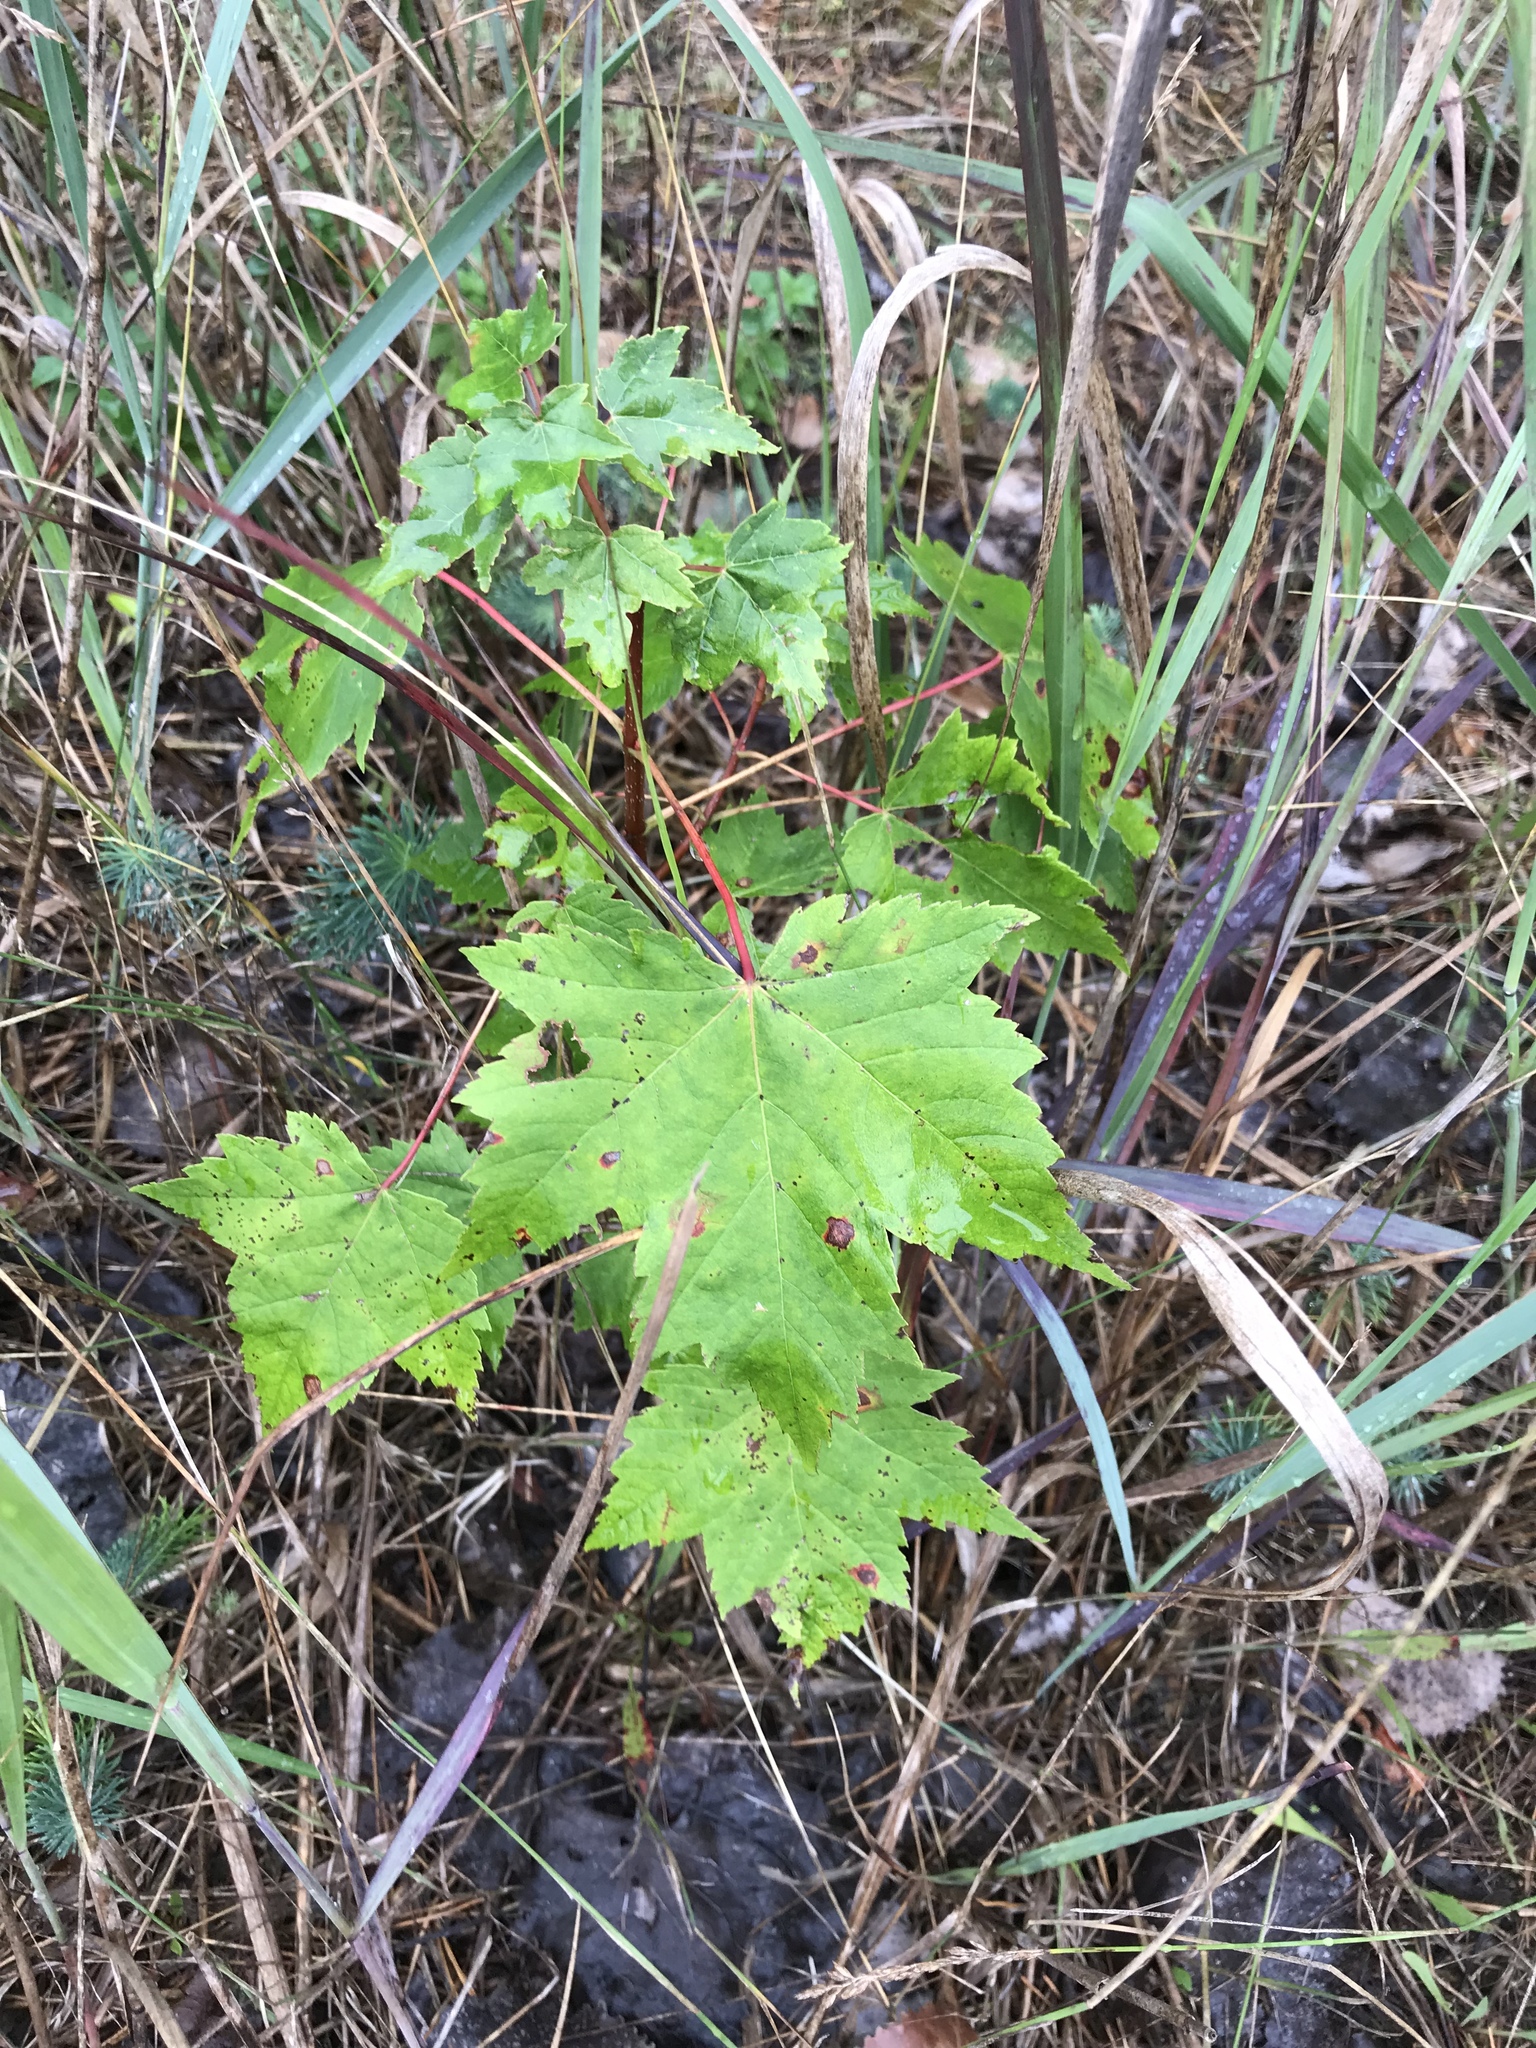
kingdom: Plantae
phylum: Tracheophyta
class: Magnoliopsida
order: Sapindales
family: Sapindaceae
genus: Acer
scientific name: Acer rubrum
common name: Red maple
